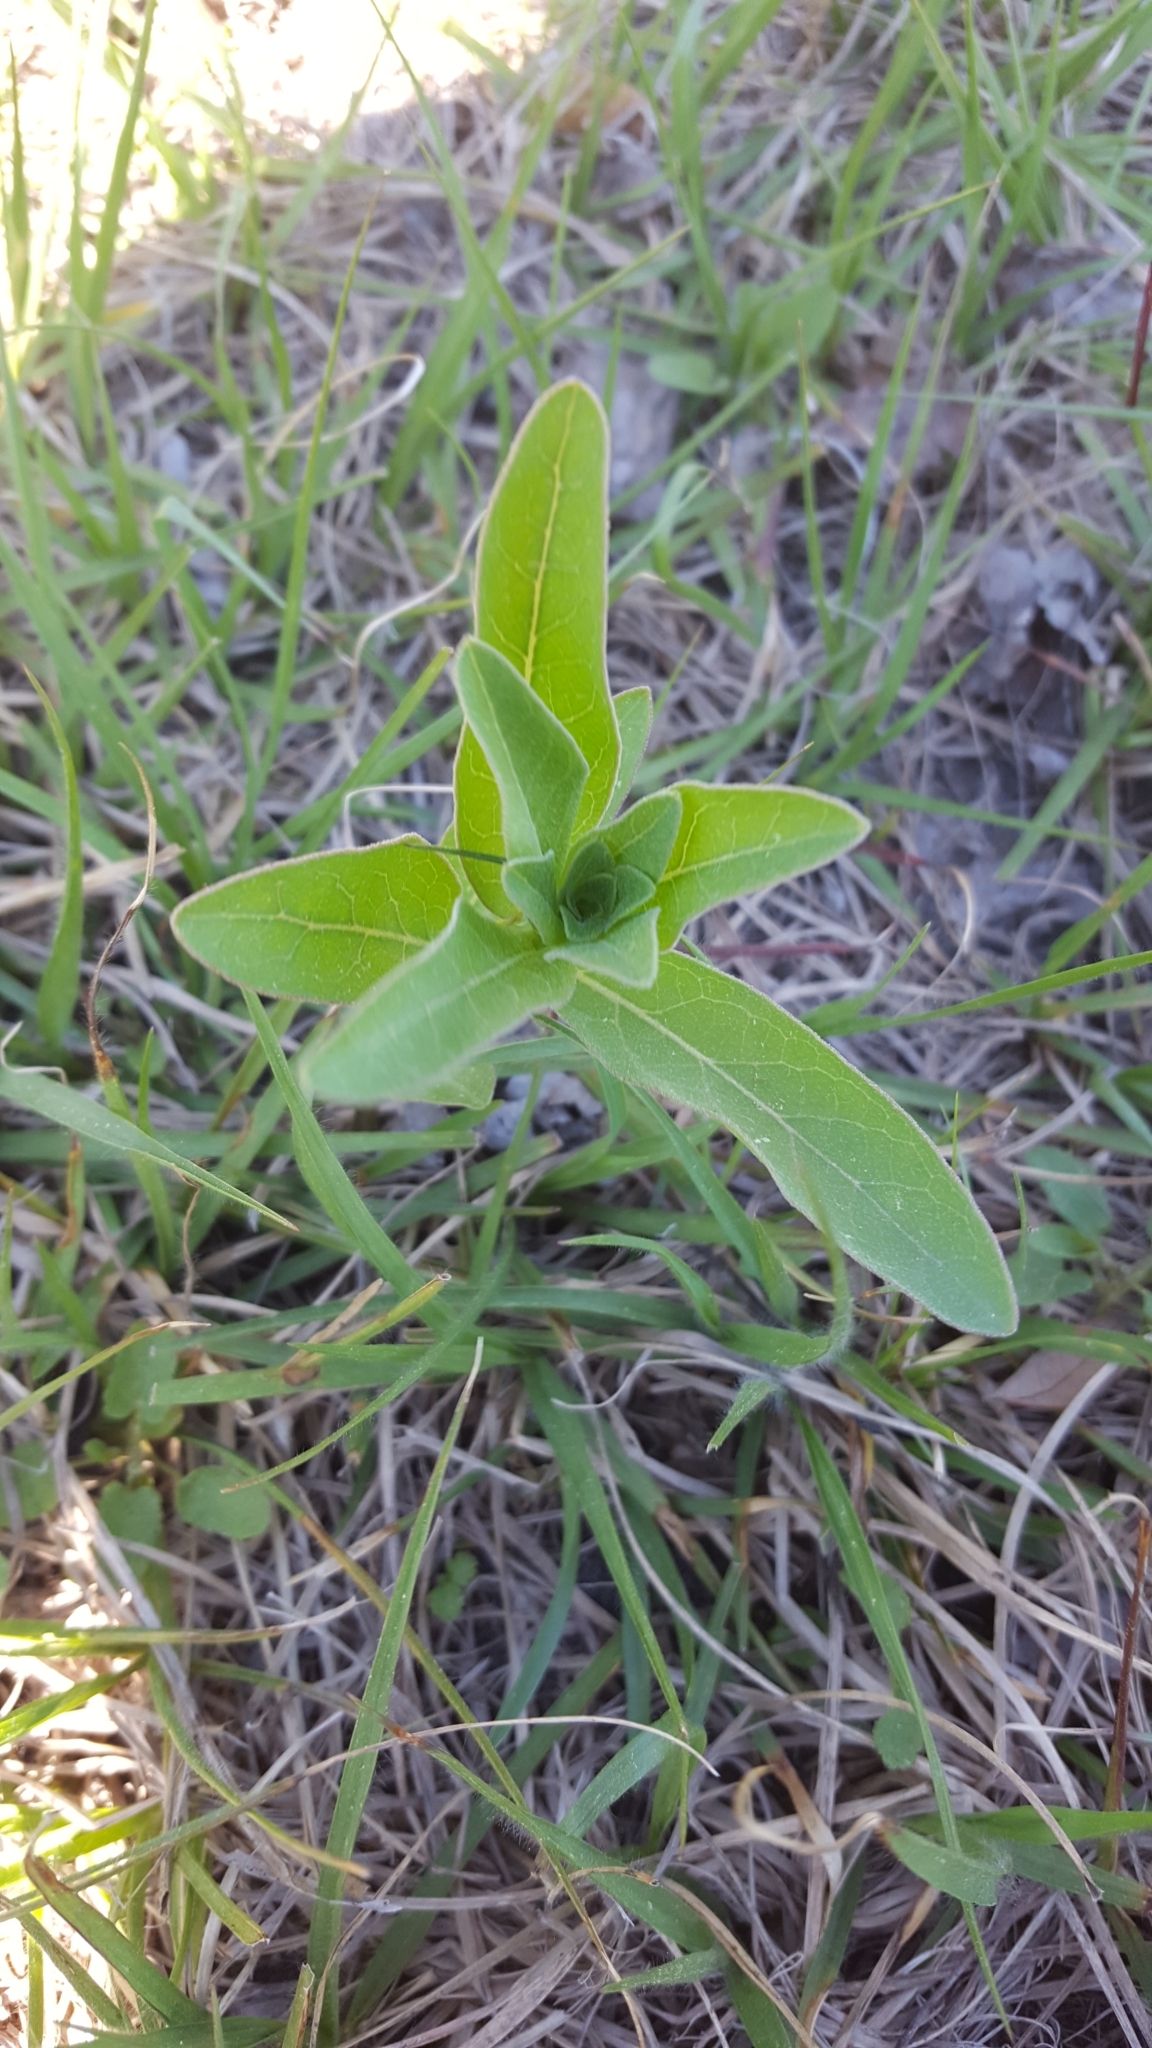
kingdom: Plantae
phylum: Tracheophyta
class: Magnoliopsida
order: Gentianales
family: Apocynaceae
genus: Asclepias
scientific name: Asclepias viridis
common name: Antelope-horns
